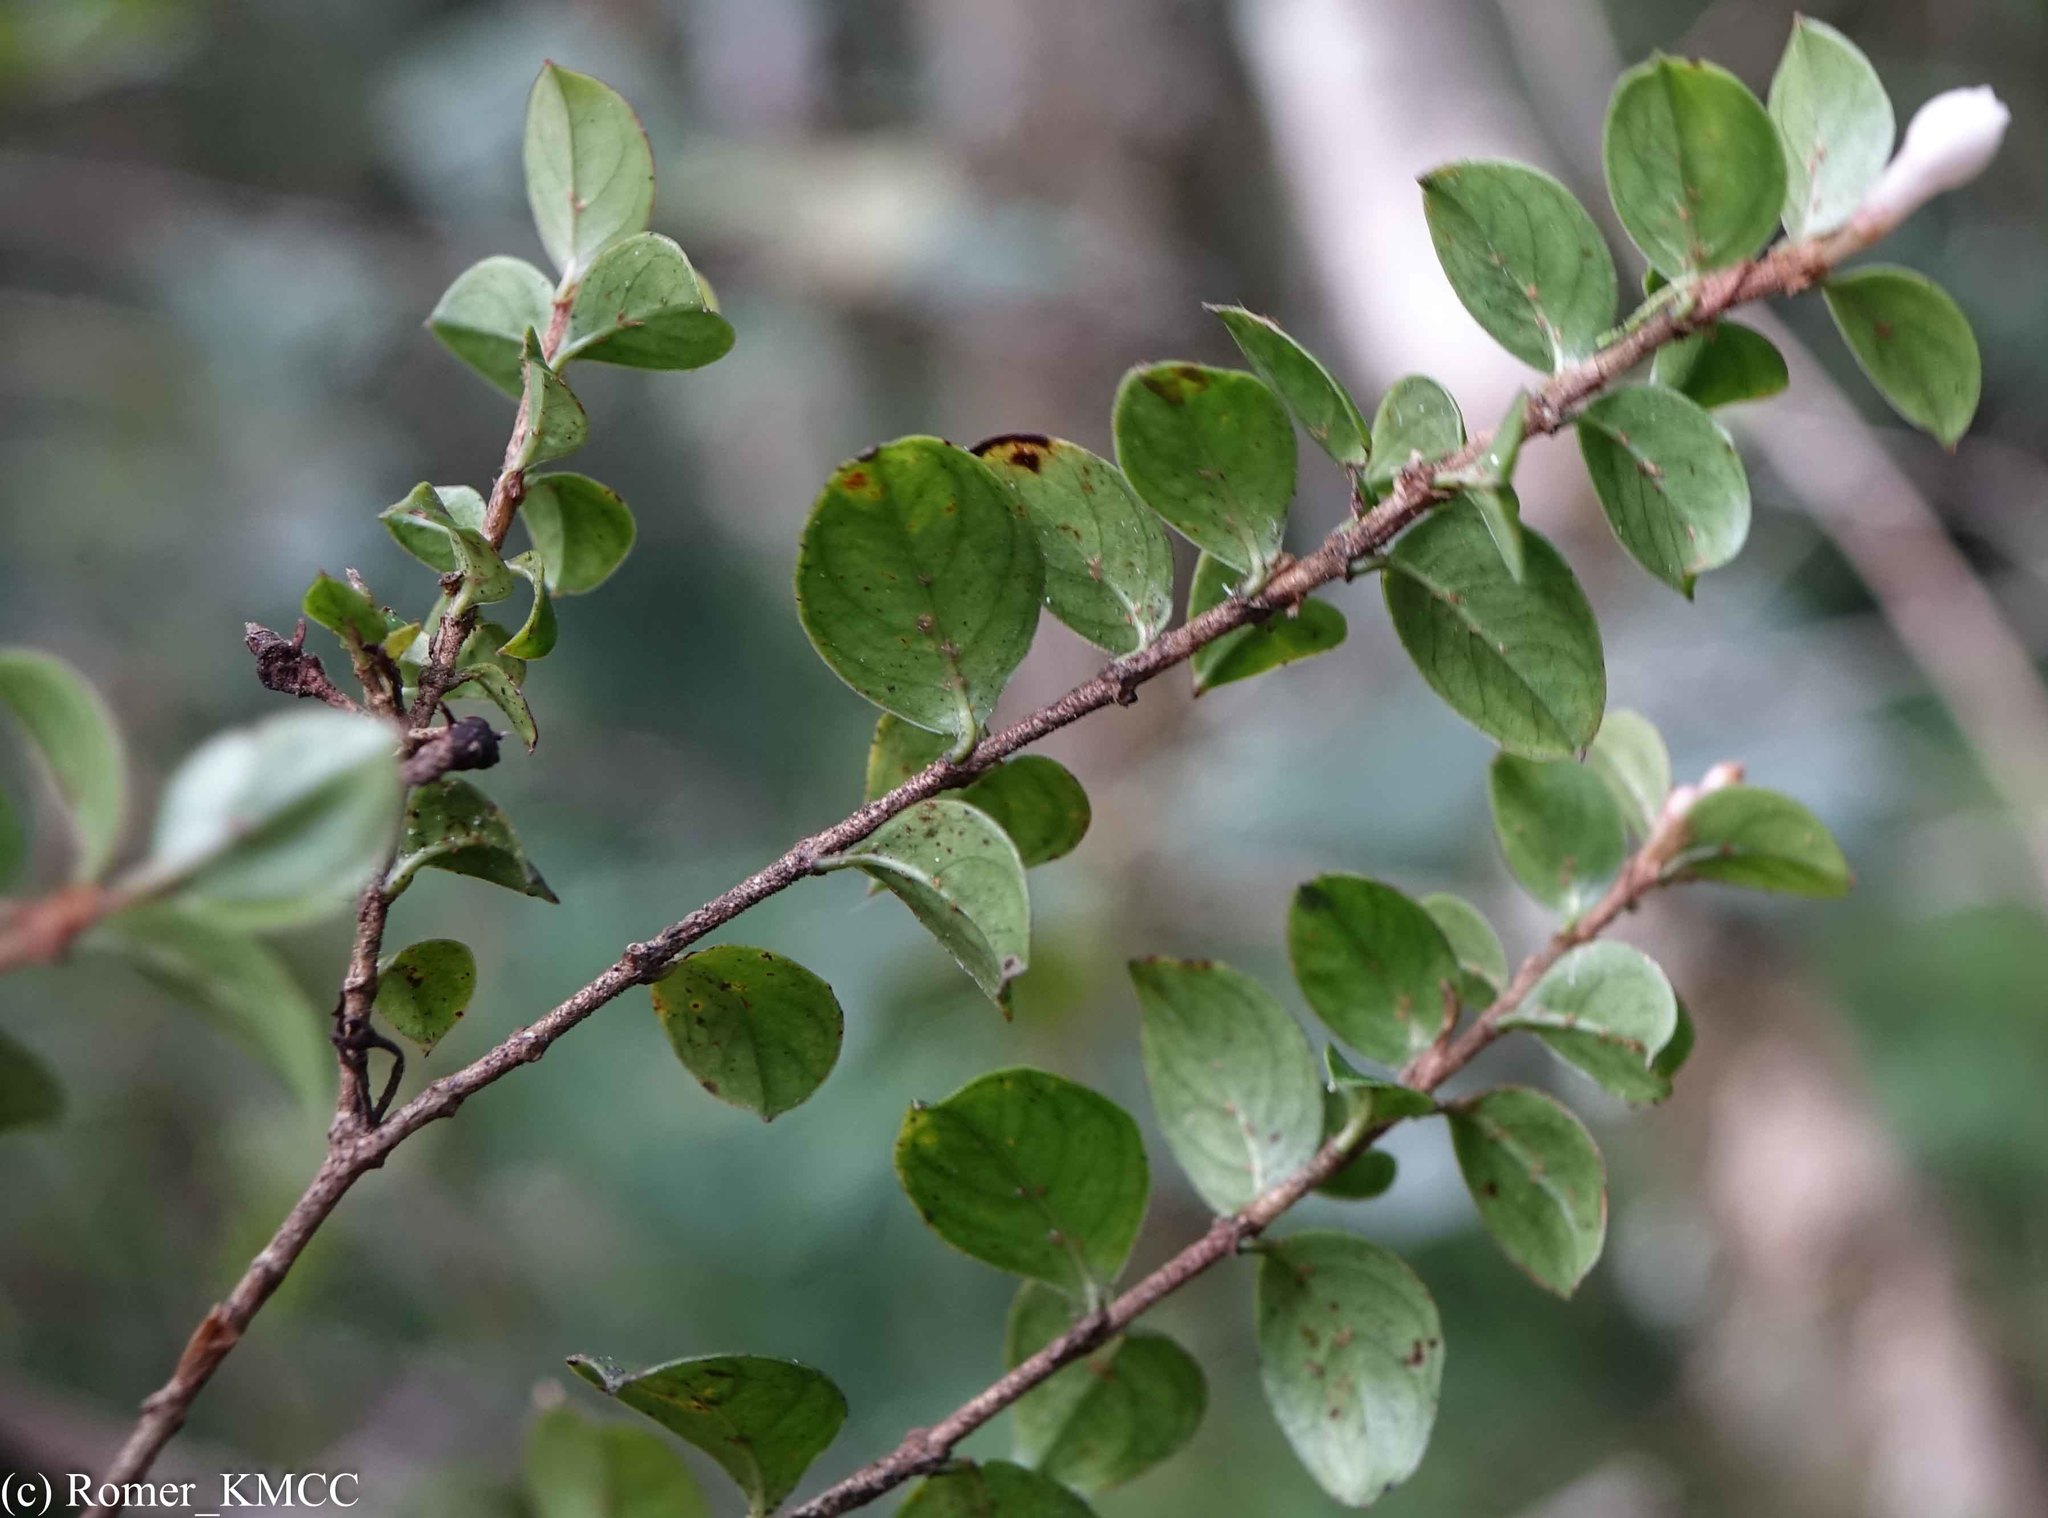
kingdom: Plantae
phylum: Tracheophyta
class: Magnoliopsida
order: Gentianales
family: Rubiaceae
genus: Gaertnera
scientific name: Gaertnera pauciflora
